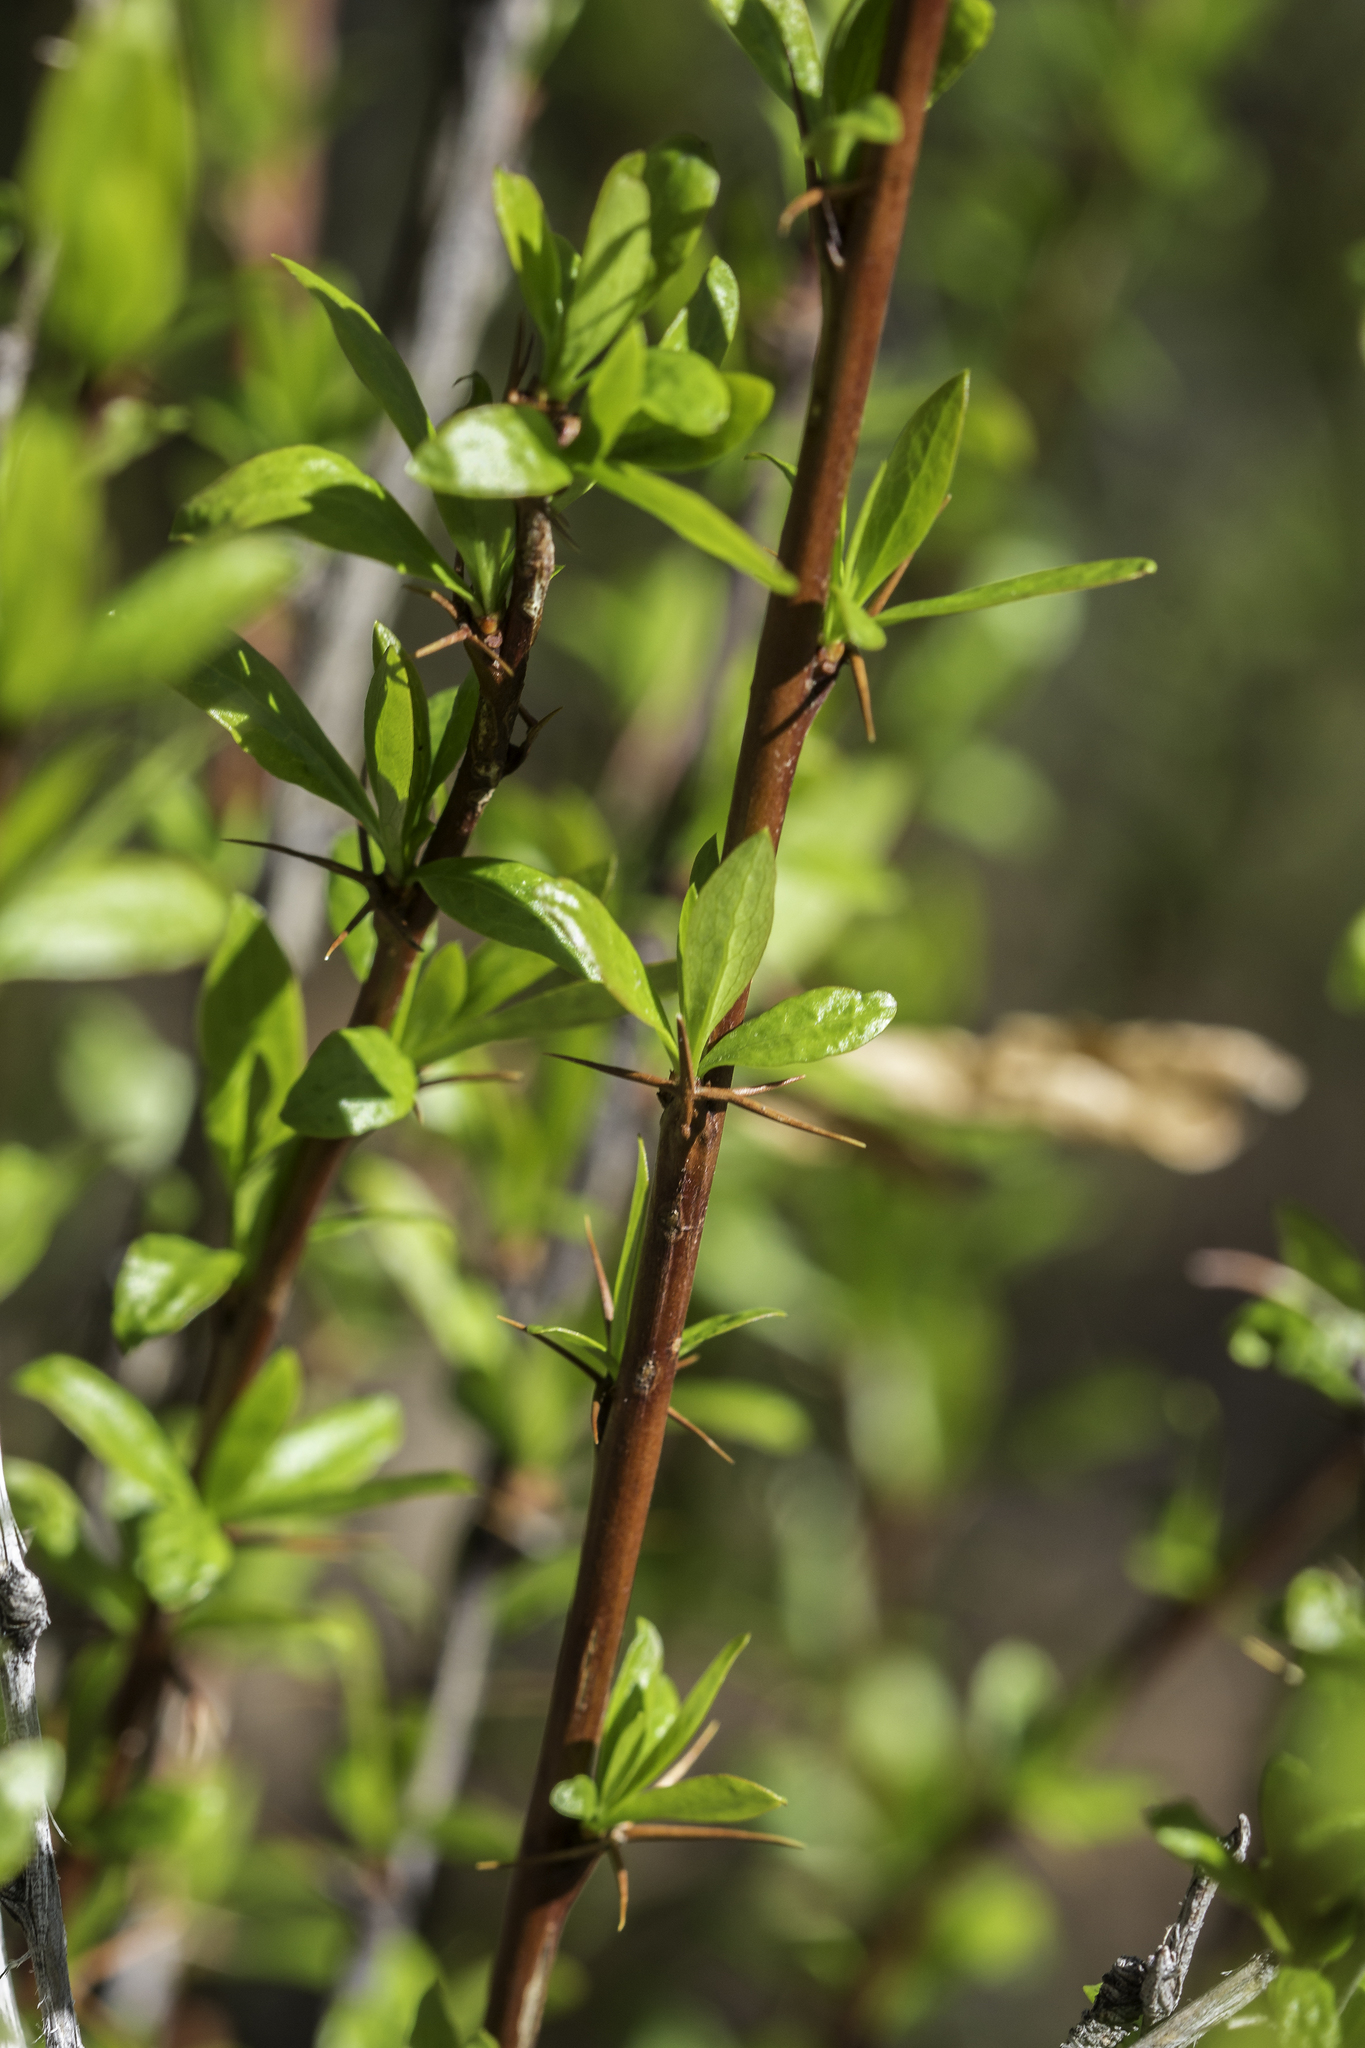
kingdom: Plantae
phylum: Tracheophyta
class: Magnoliopsida
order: Ranunculales
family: Berberidaceae
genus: Berberis
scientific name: Berberis fendleri
